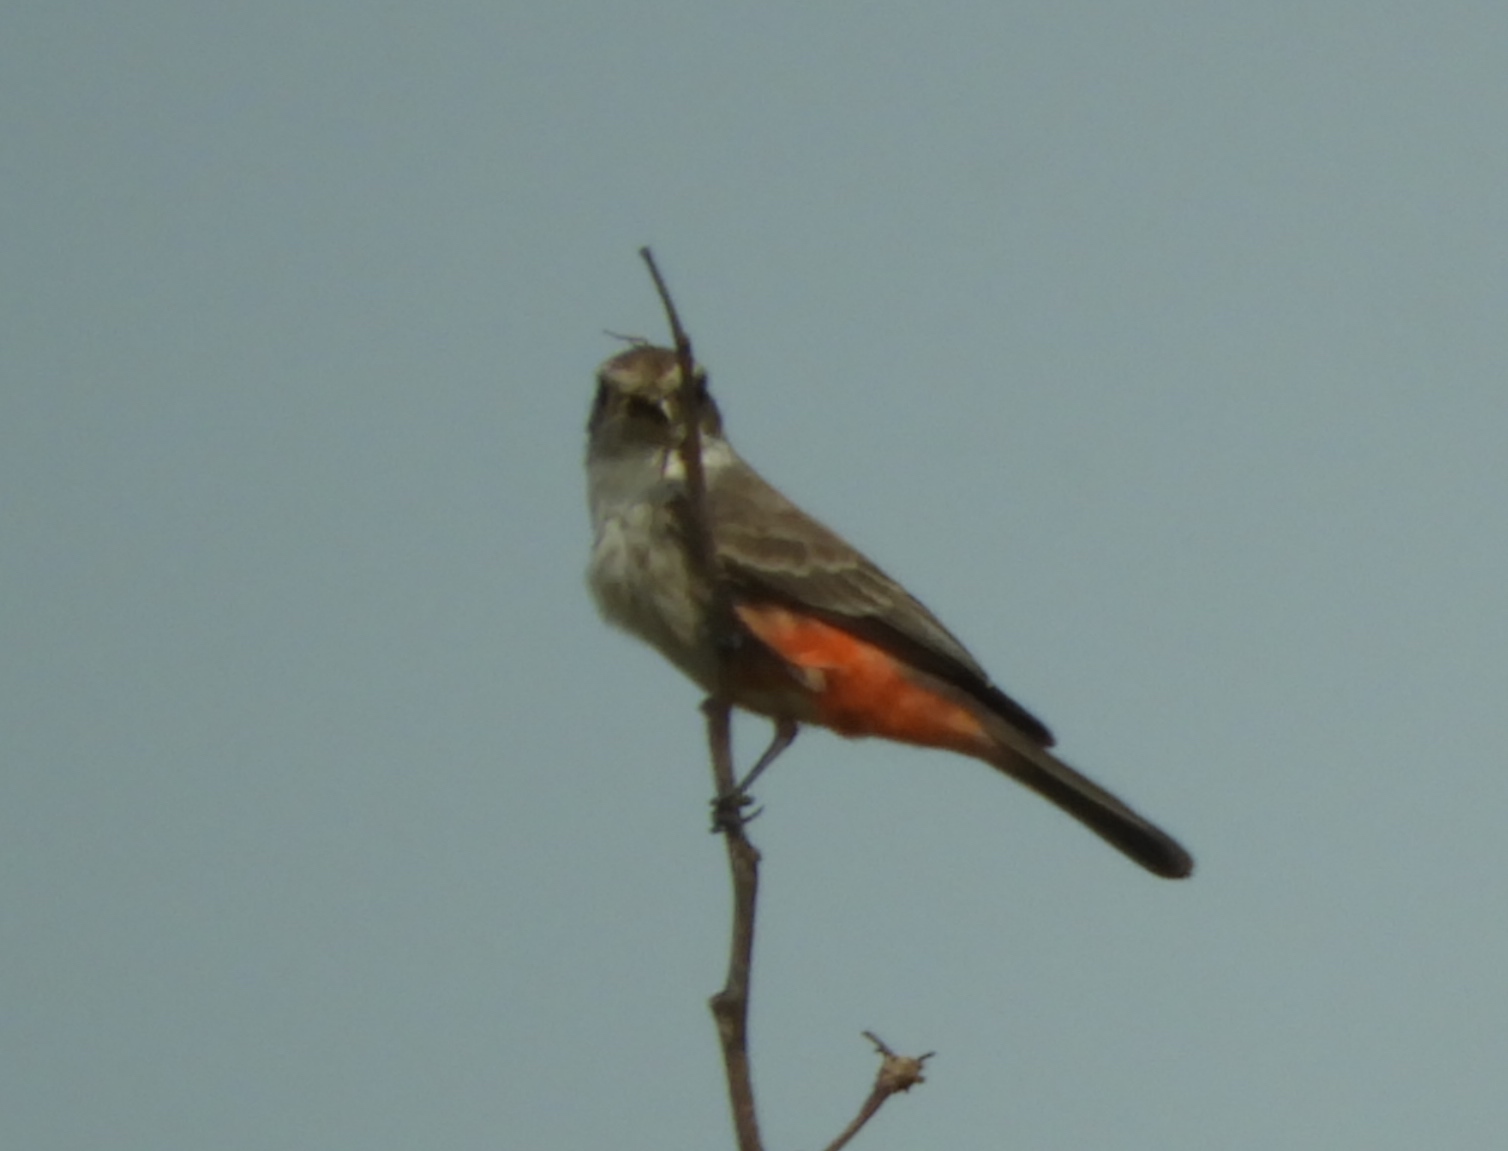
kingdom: Animalia
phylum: Chordata
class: Aves
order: Passeriformes
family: Tyrannidae
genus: Pyrocephalus
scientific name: Pyrocephalus rubinus
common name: Vermilion flycatcher
